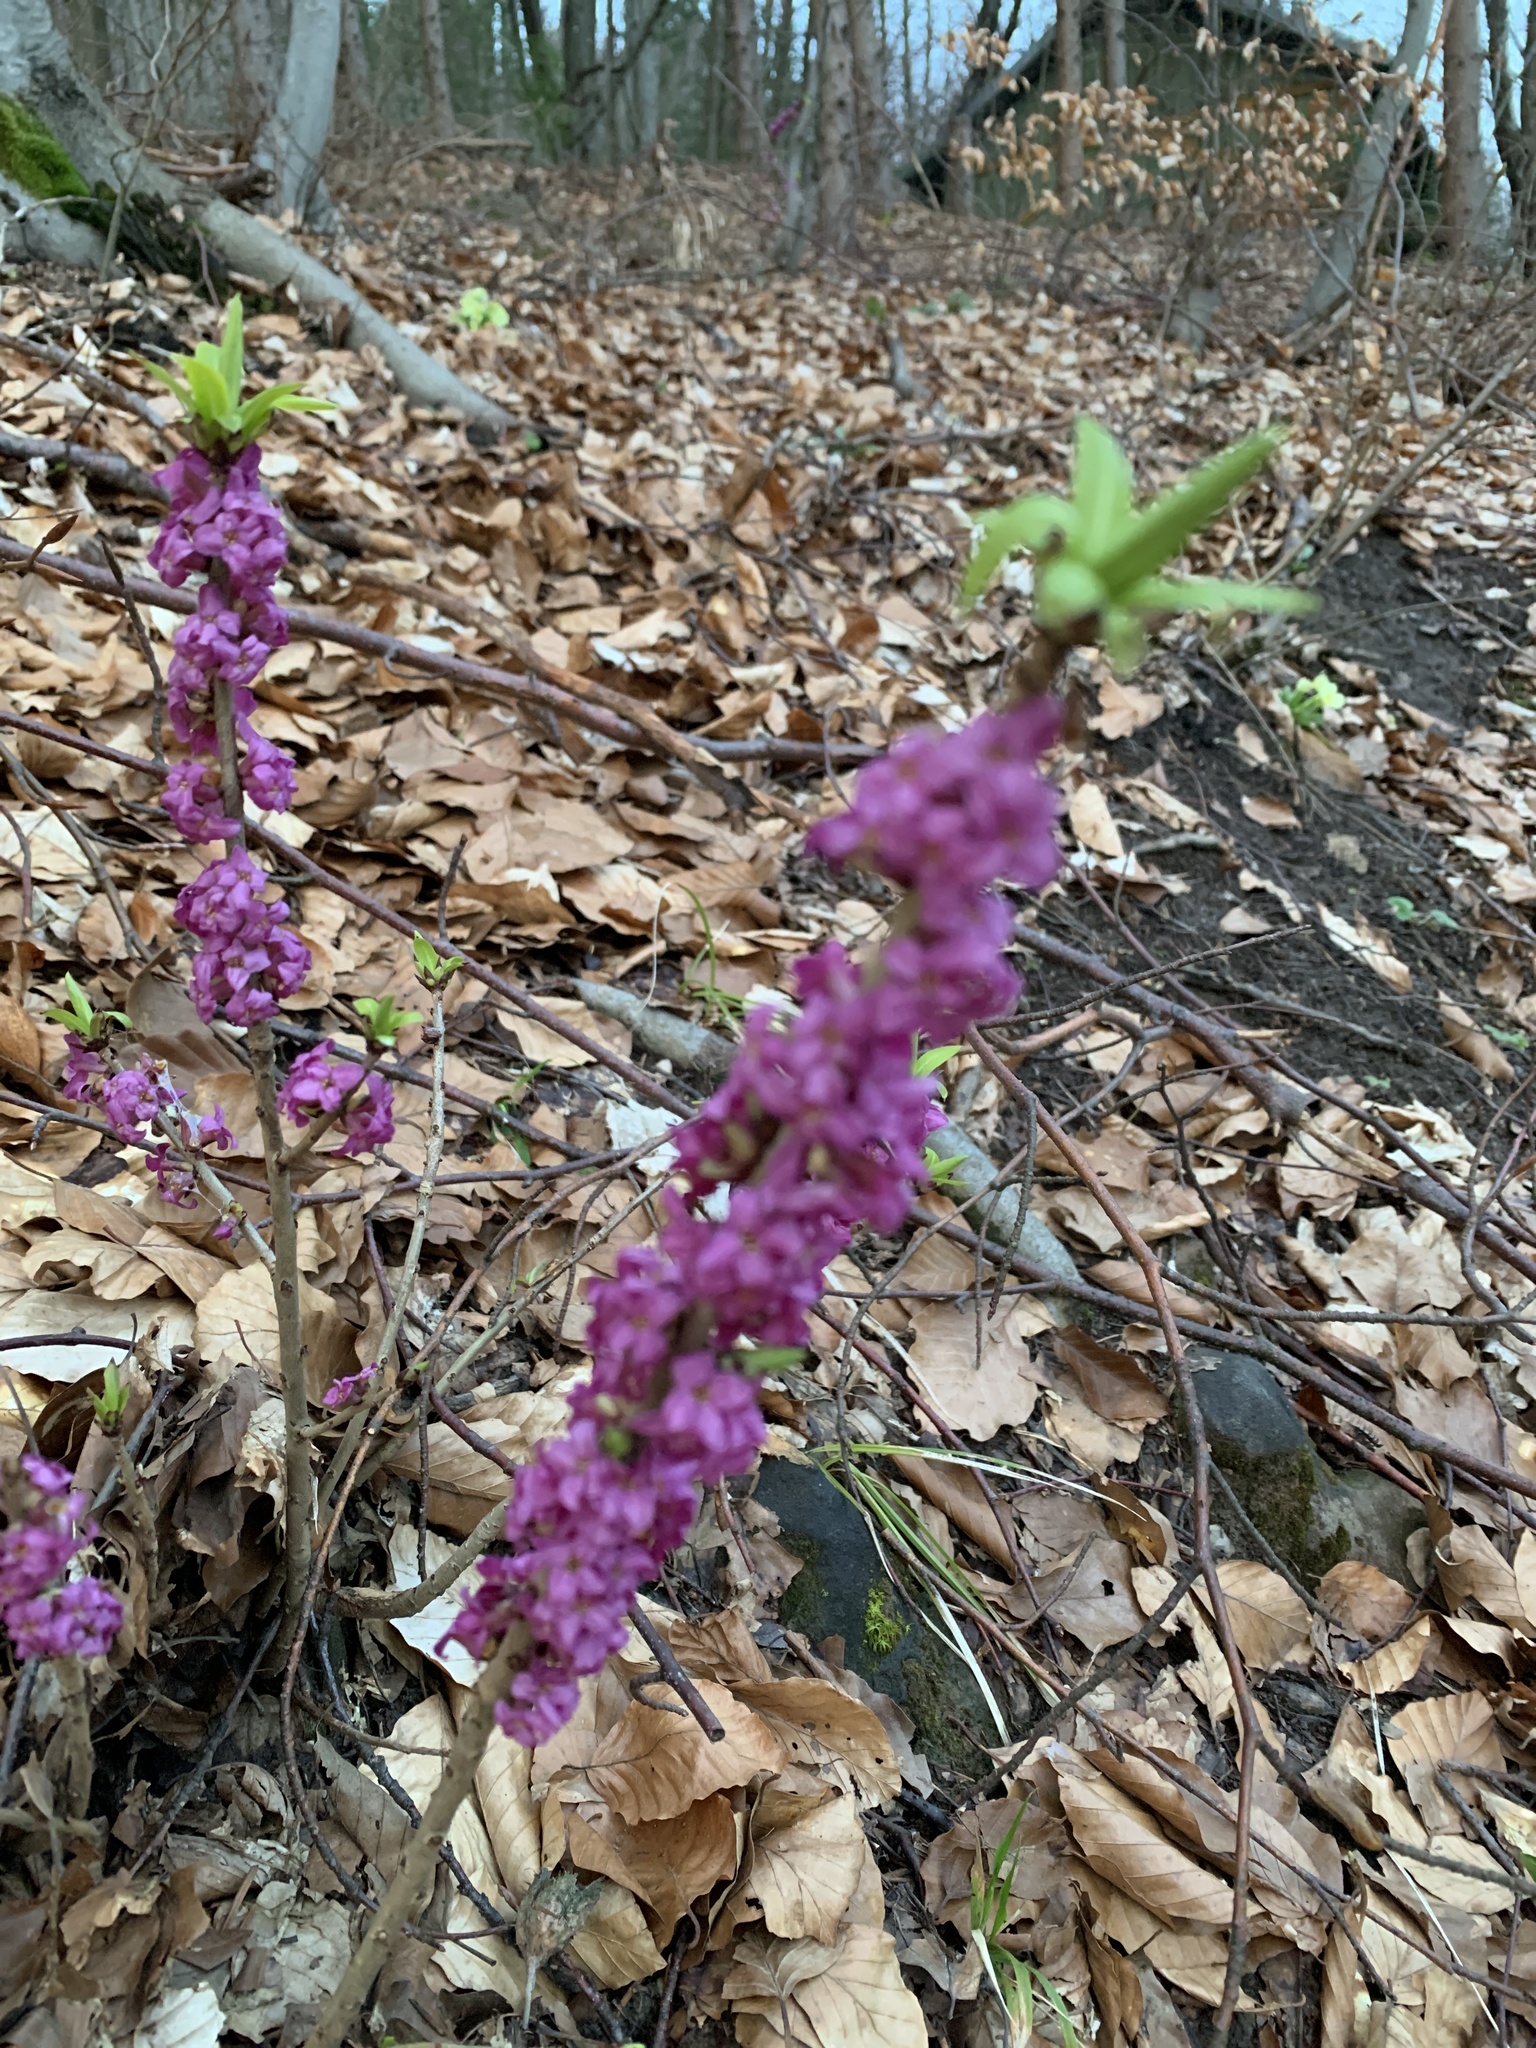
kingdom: Plantae
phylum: Tracheophyta
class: Magnoliopsida
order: Malvales
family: Thymelaeaceae
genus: Daphne
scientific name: Daphne mezereum
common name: Mezereon
